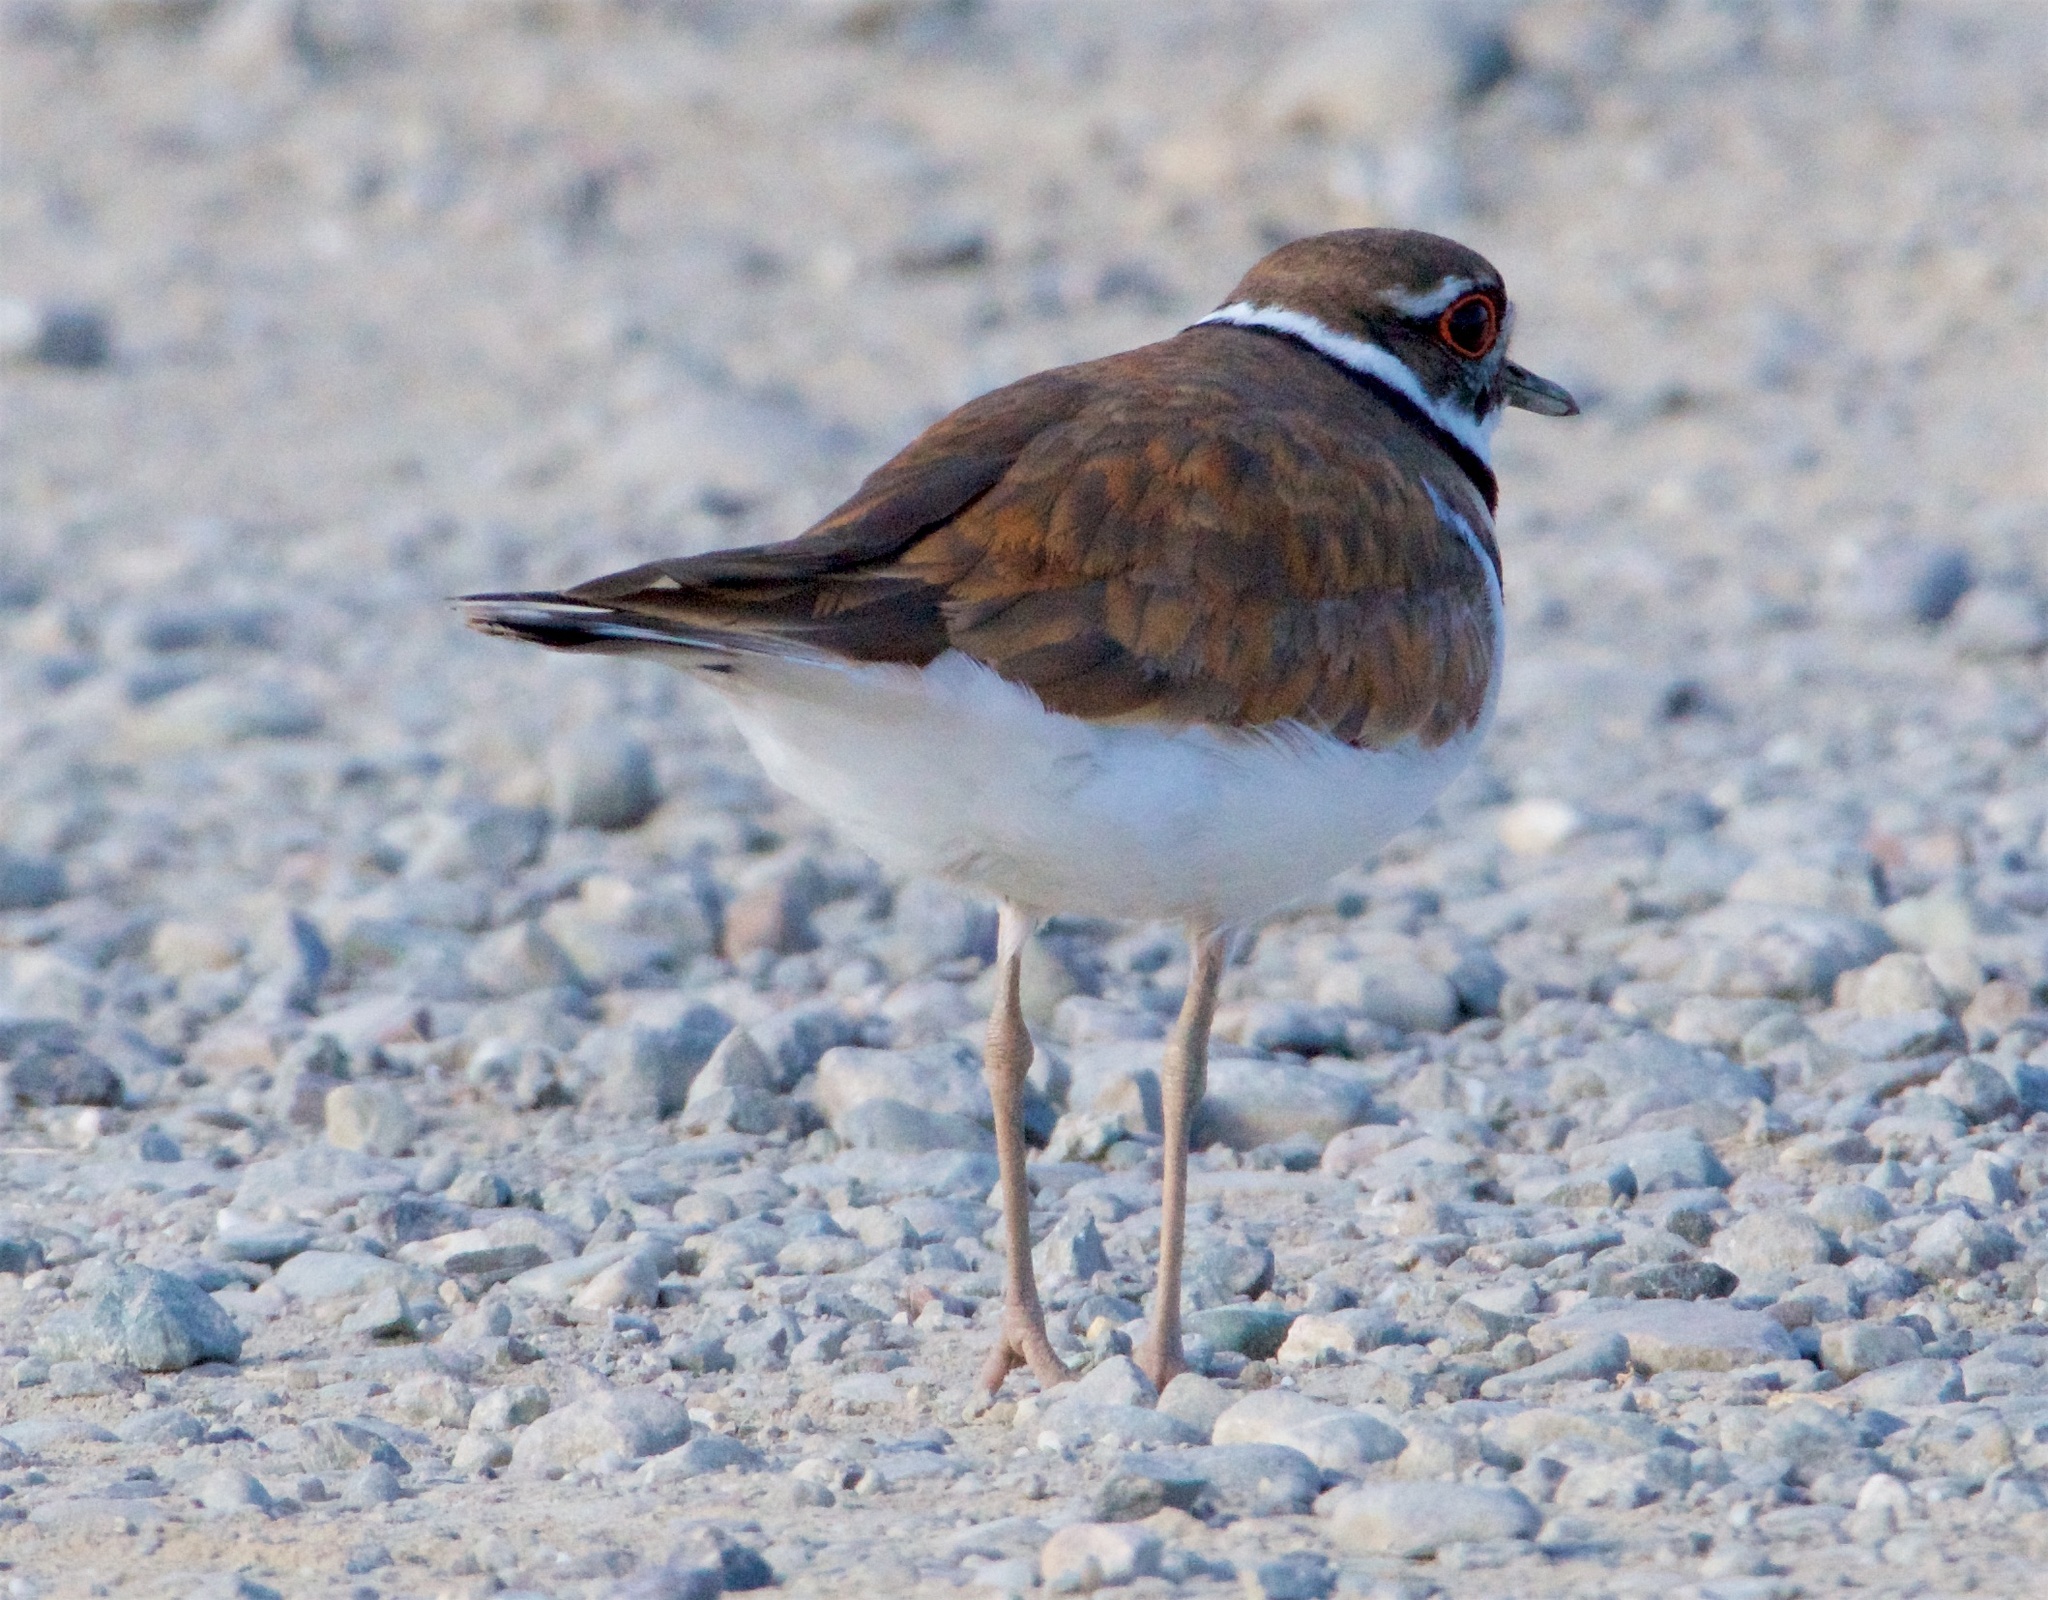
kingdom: Animalia
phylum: Chordata
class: Aves
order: Charadriiformes
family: Charadriidae
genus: Charadrius
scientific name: Charadrius vociferus
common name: Killdeer
